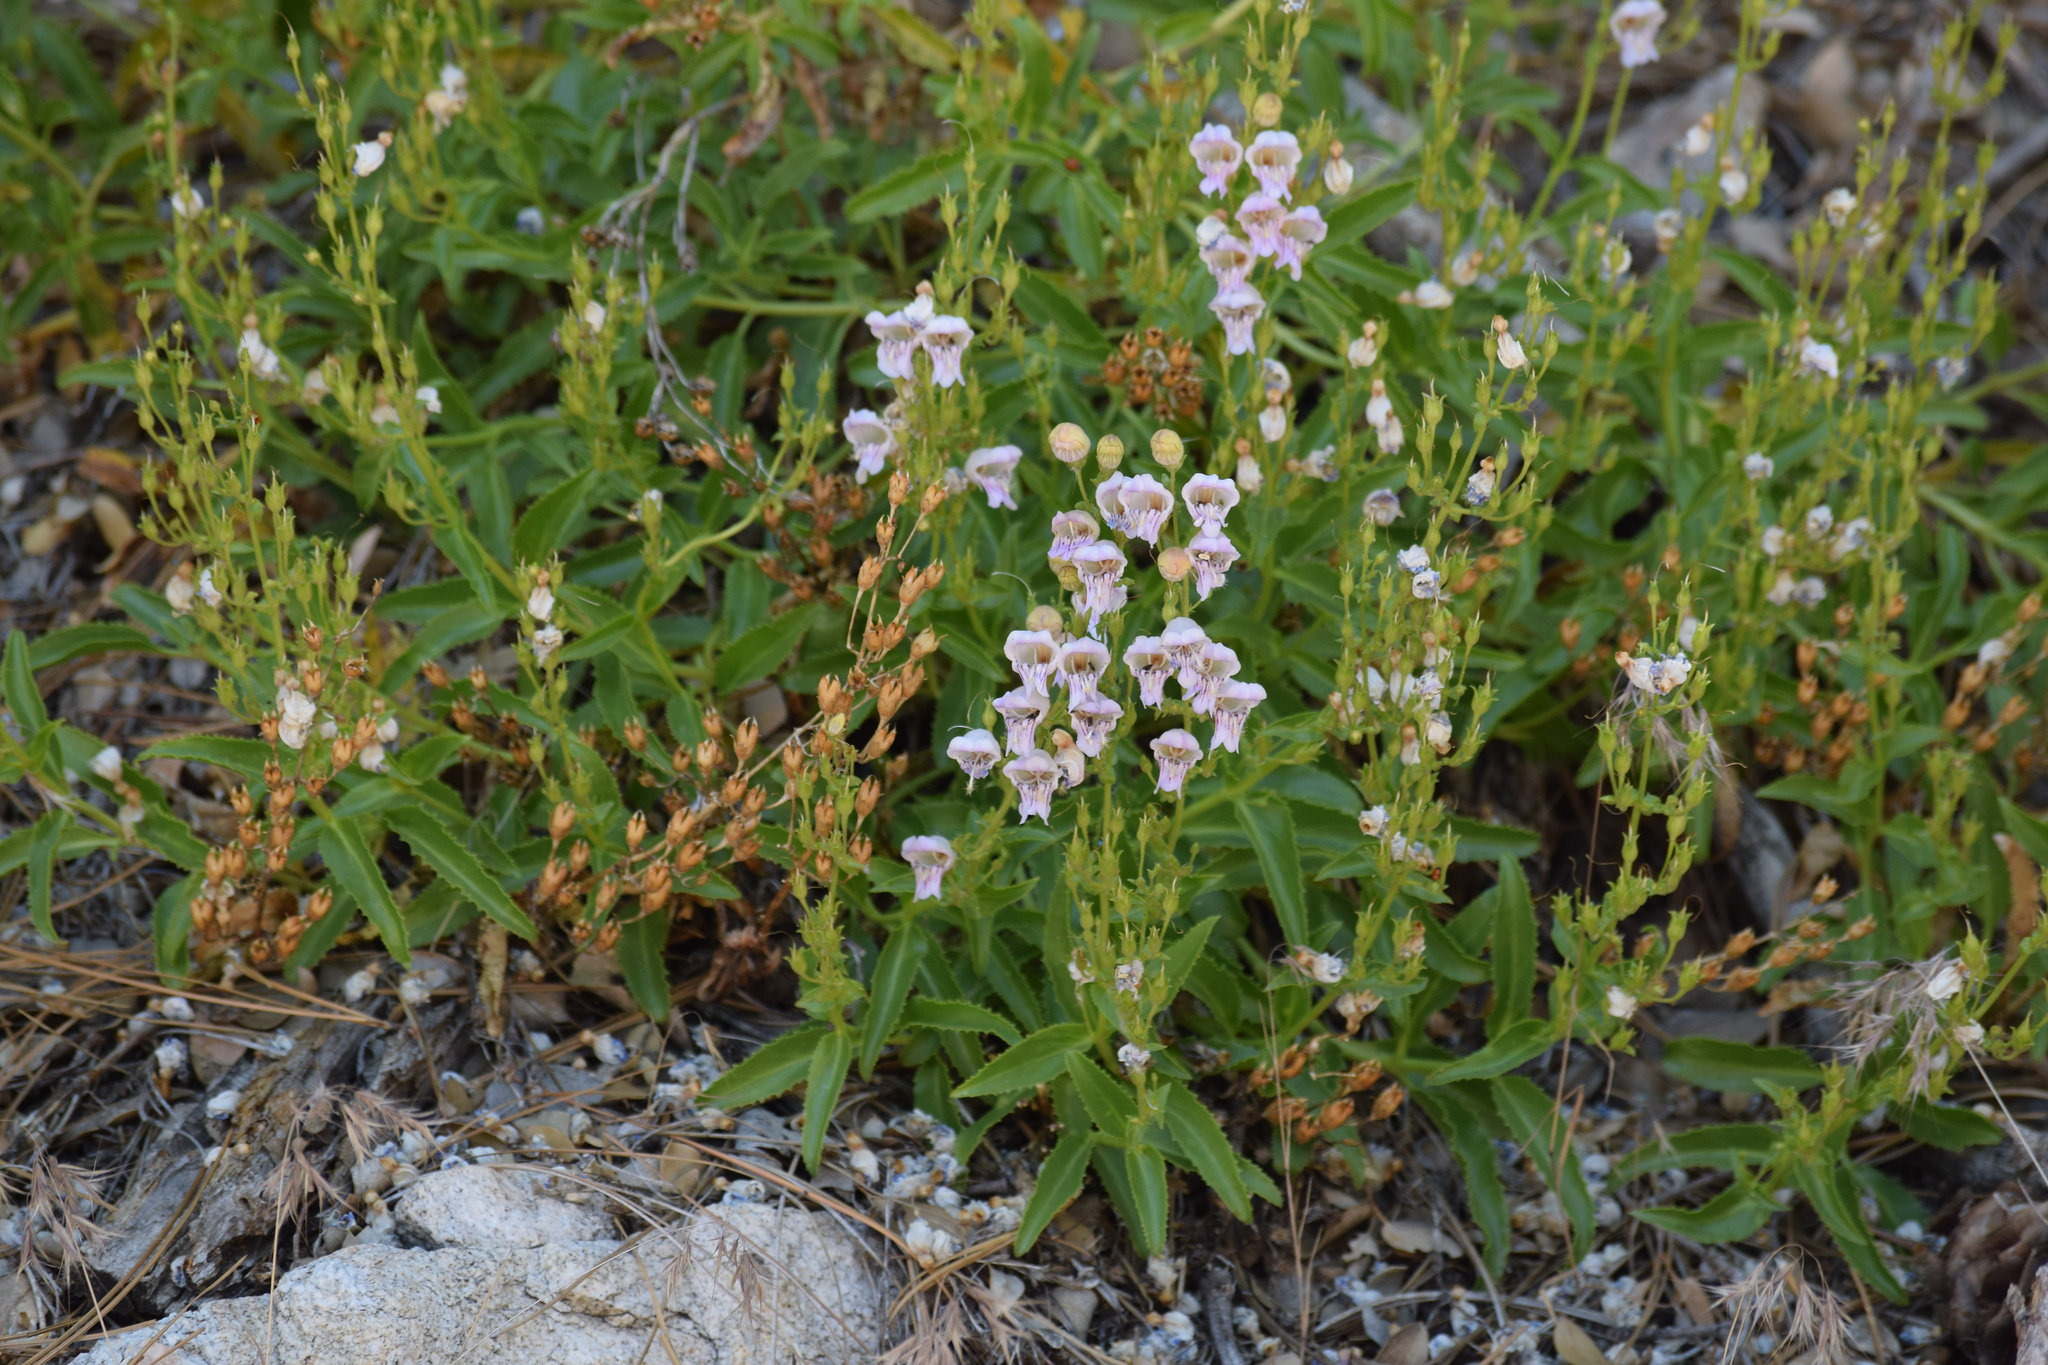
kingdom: Plantae
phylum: Tracheophyta
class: Magnoliopsida
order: Lamiales
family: Plantaginaceae
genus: Penstemon
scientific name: Penstemon grinnellii
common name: Grinnell's beardtongue
